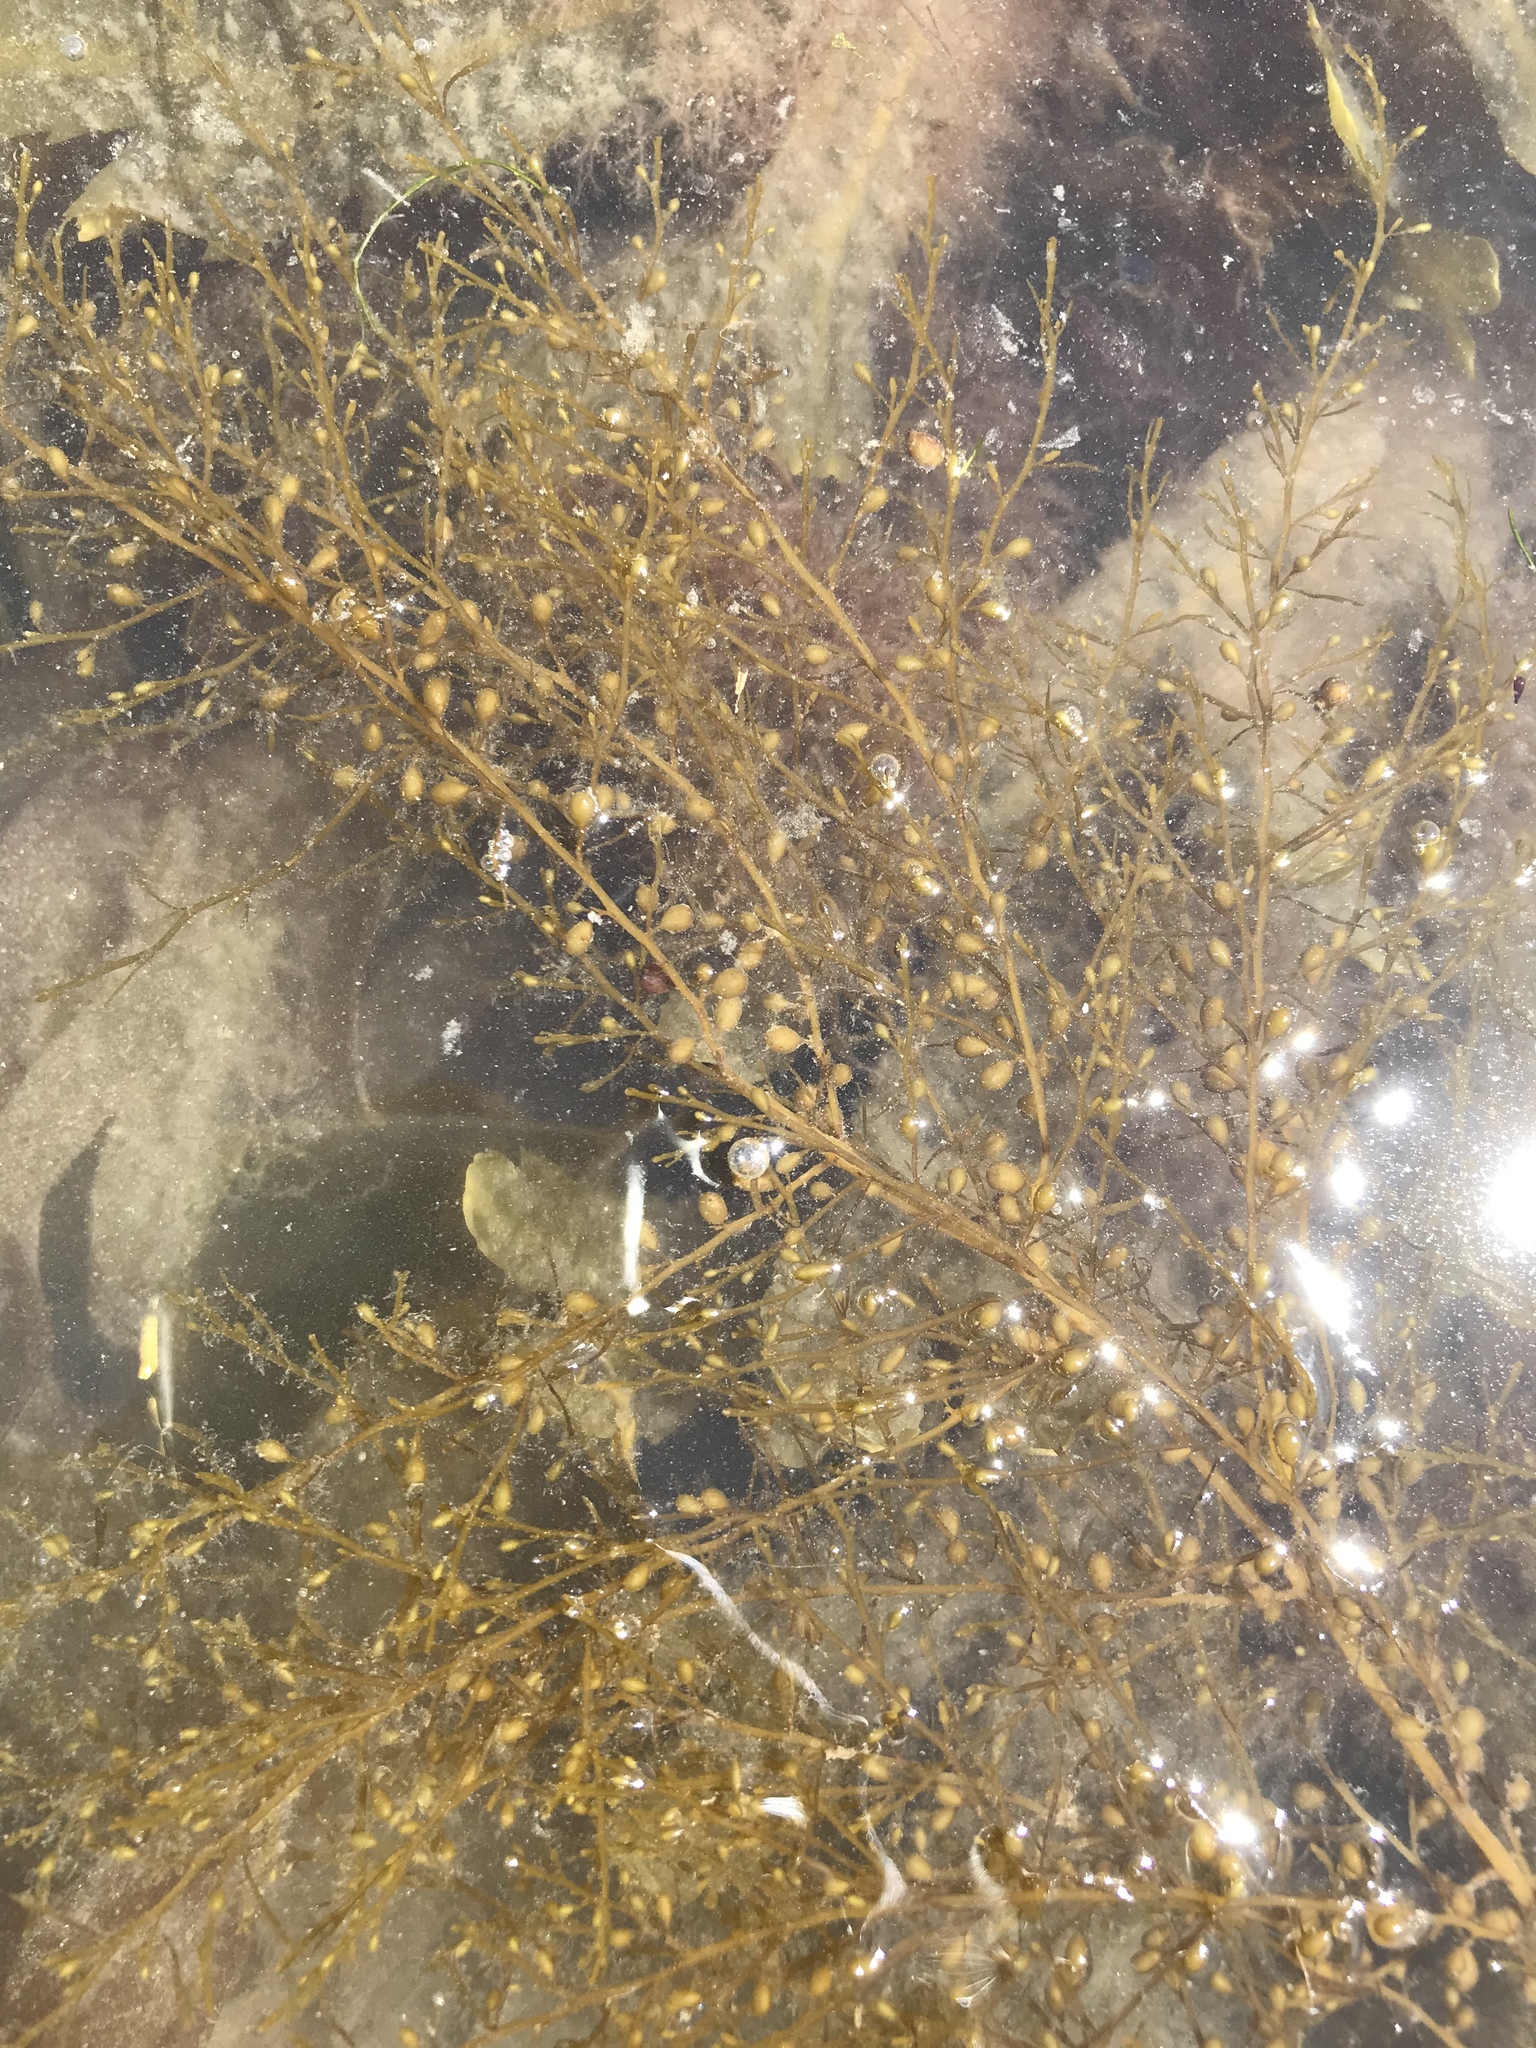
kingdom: Chromista
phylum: Ochrophyta
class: Phaeophyceae
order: Fucales
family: Sargassaceae
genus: Sargassum
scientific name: Sargassum muticum
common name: Japweed
